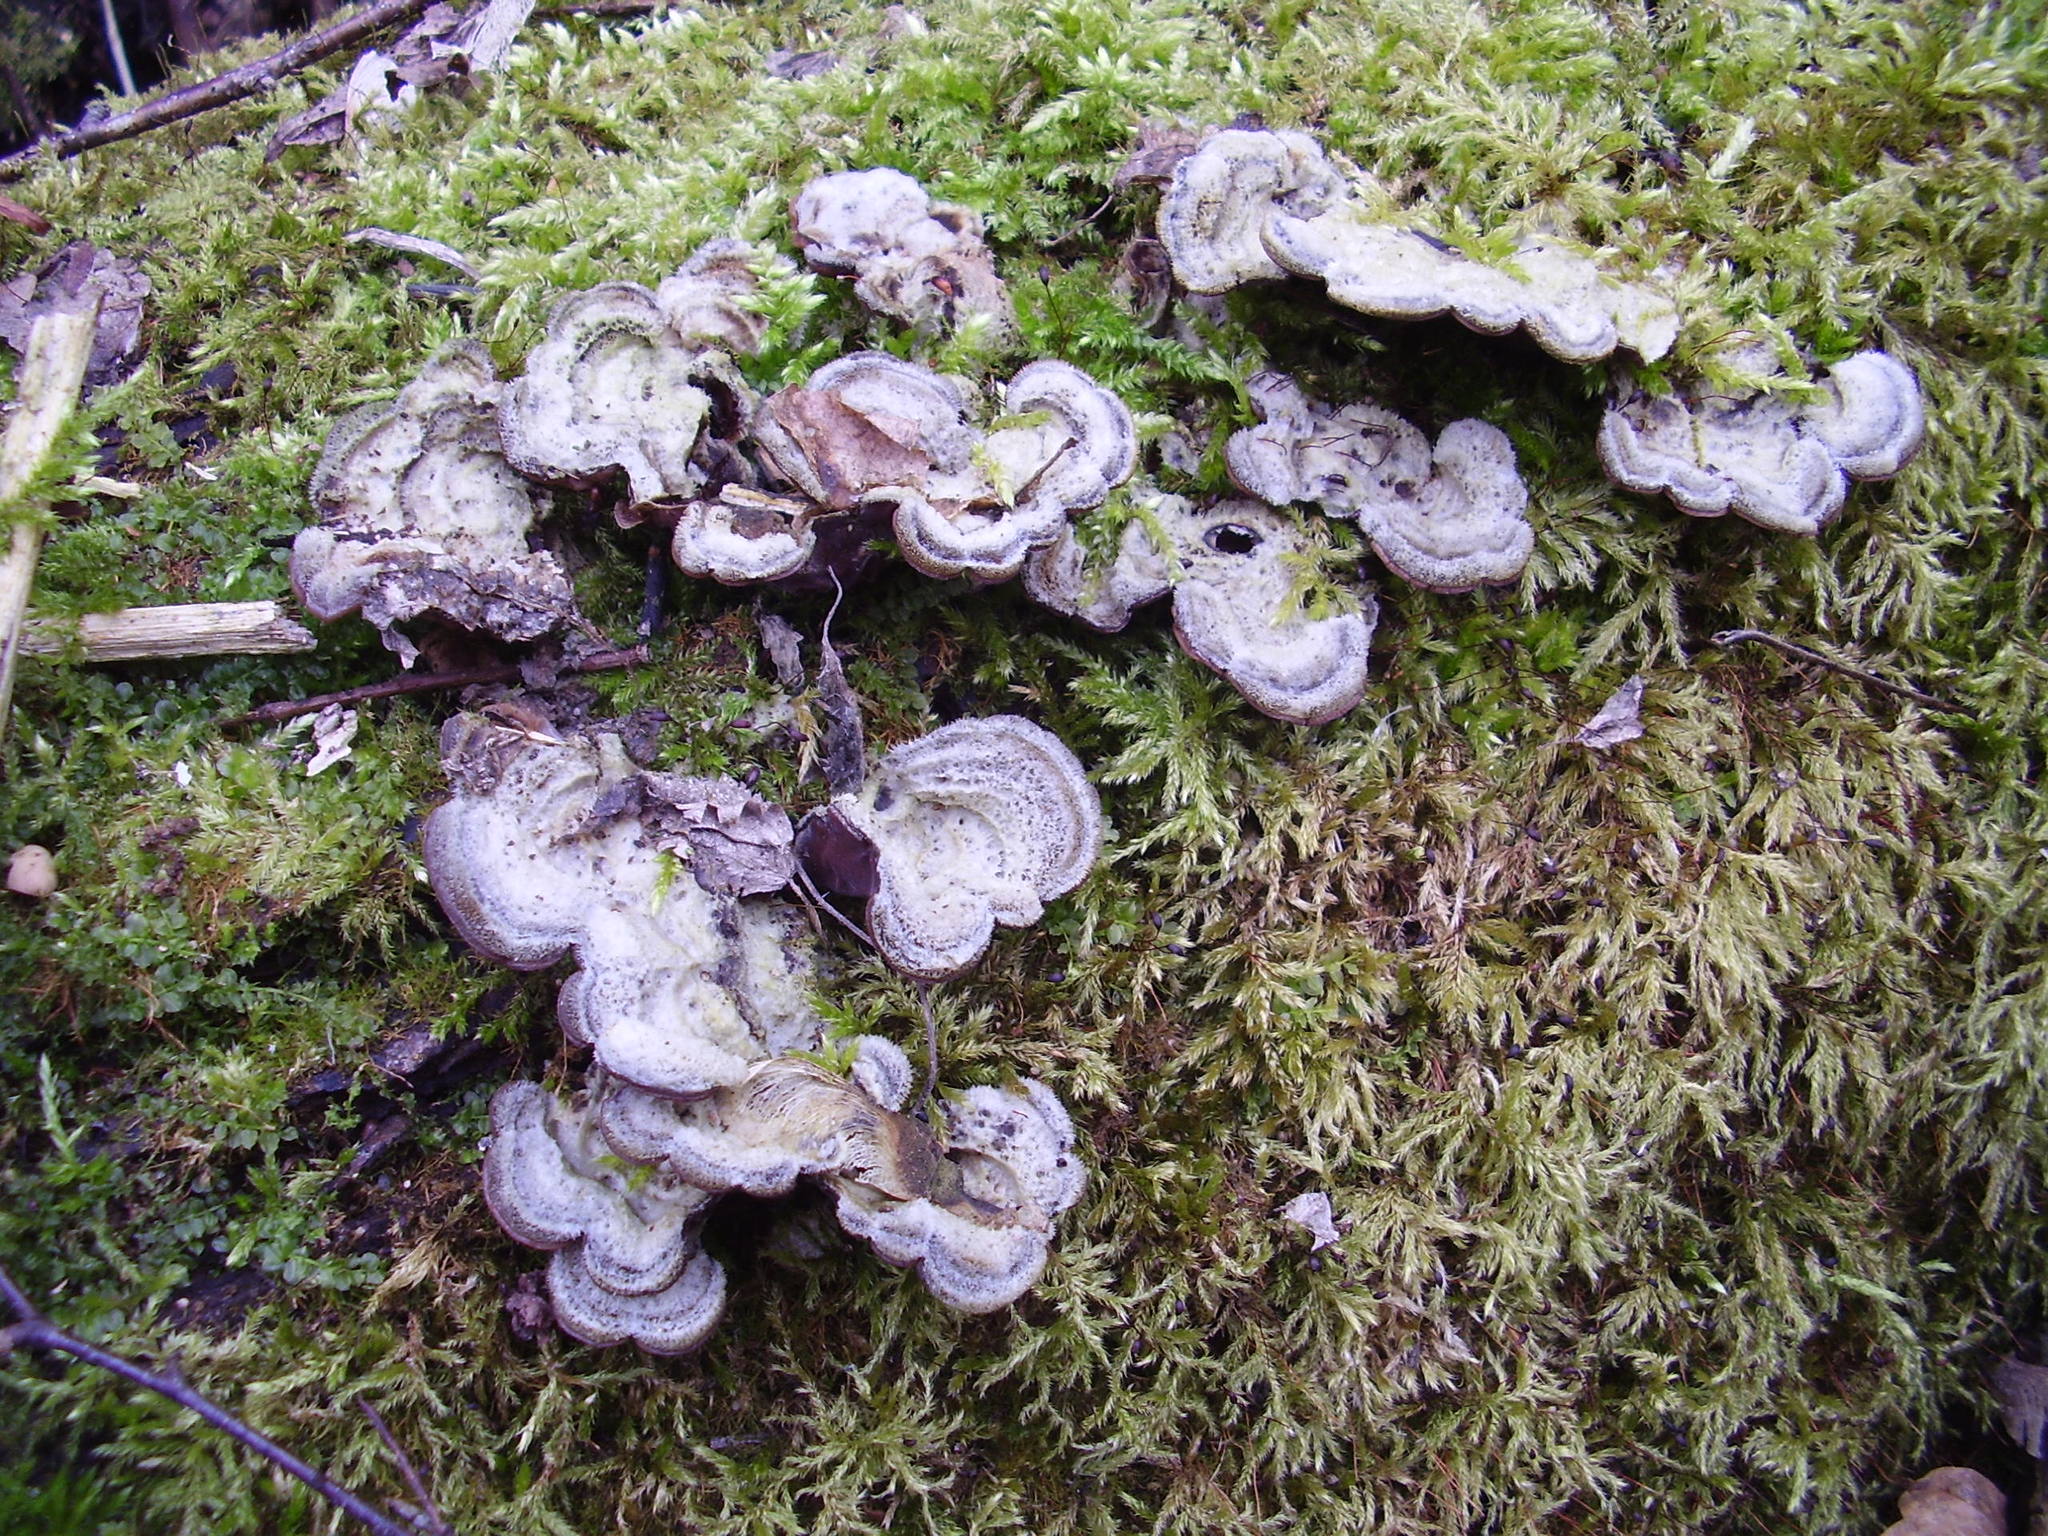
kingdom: Fungi
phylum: Basidiomycota
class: Agaricomycetes
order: Agaricales
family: Cyphellaceae
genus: Chondrostereum
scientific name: Chondrostereum purpureum
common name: Silver leaf disease
